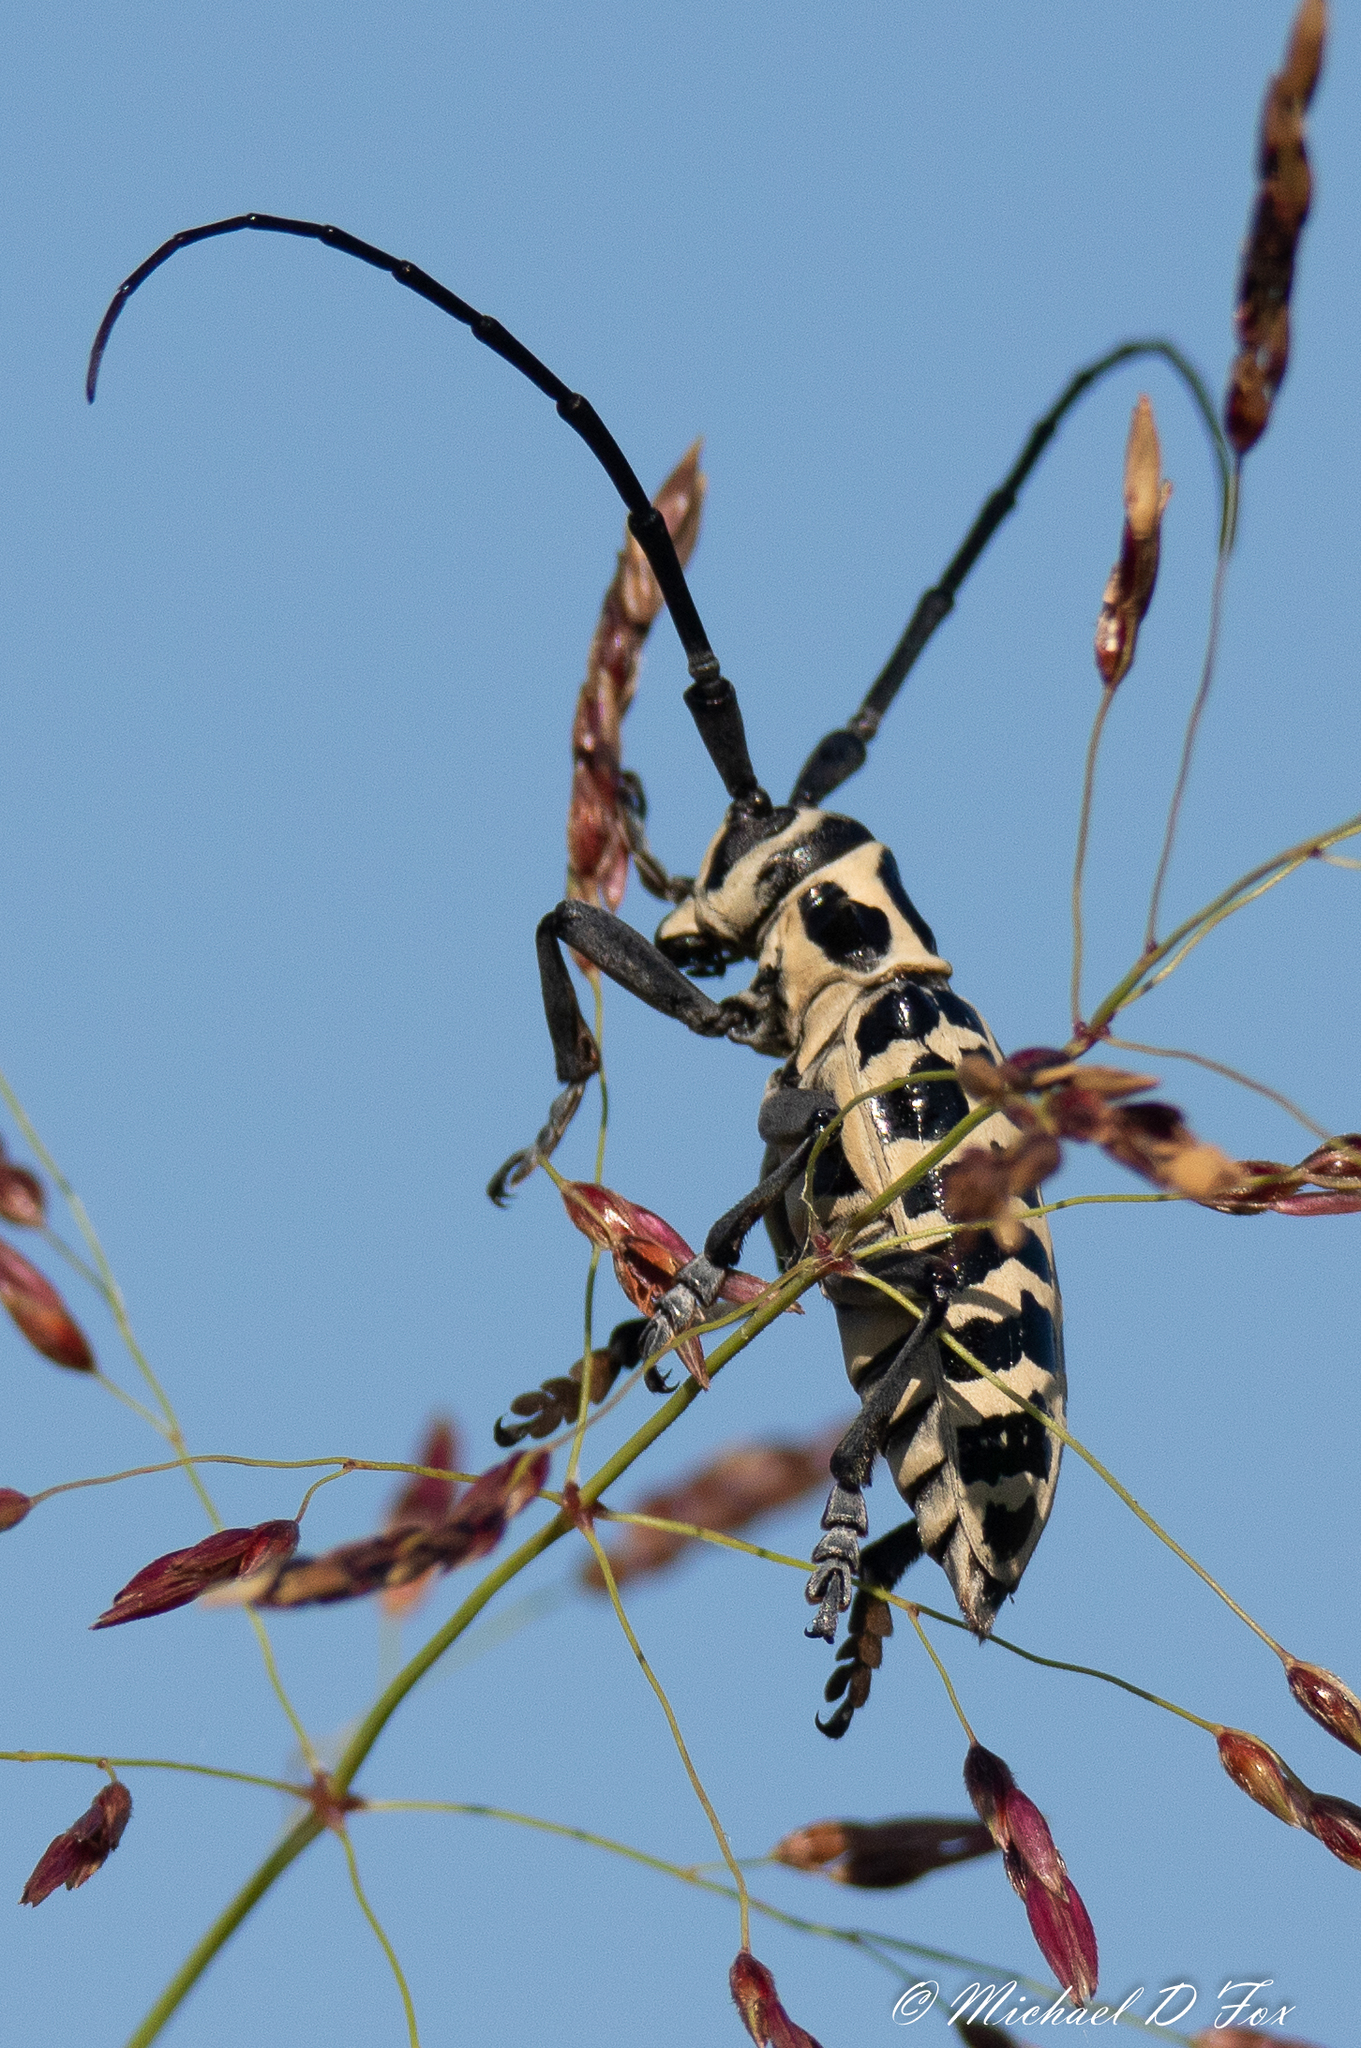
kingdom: Animalia
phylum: Arthropoda
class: Insecta
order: Coleoptera
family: Cerambycidae
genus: Plectrodera
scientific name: Plectrodera scalator
